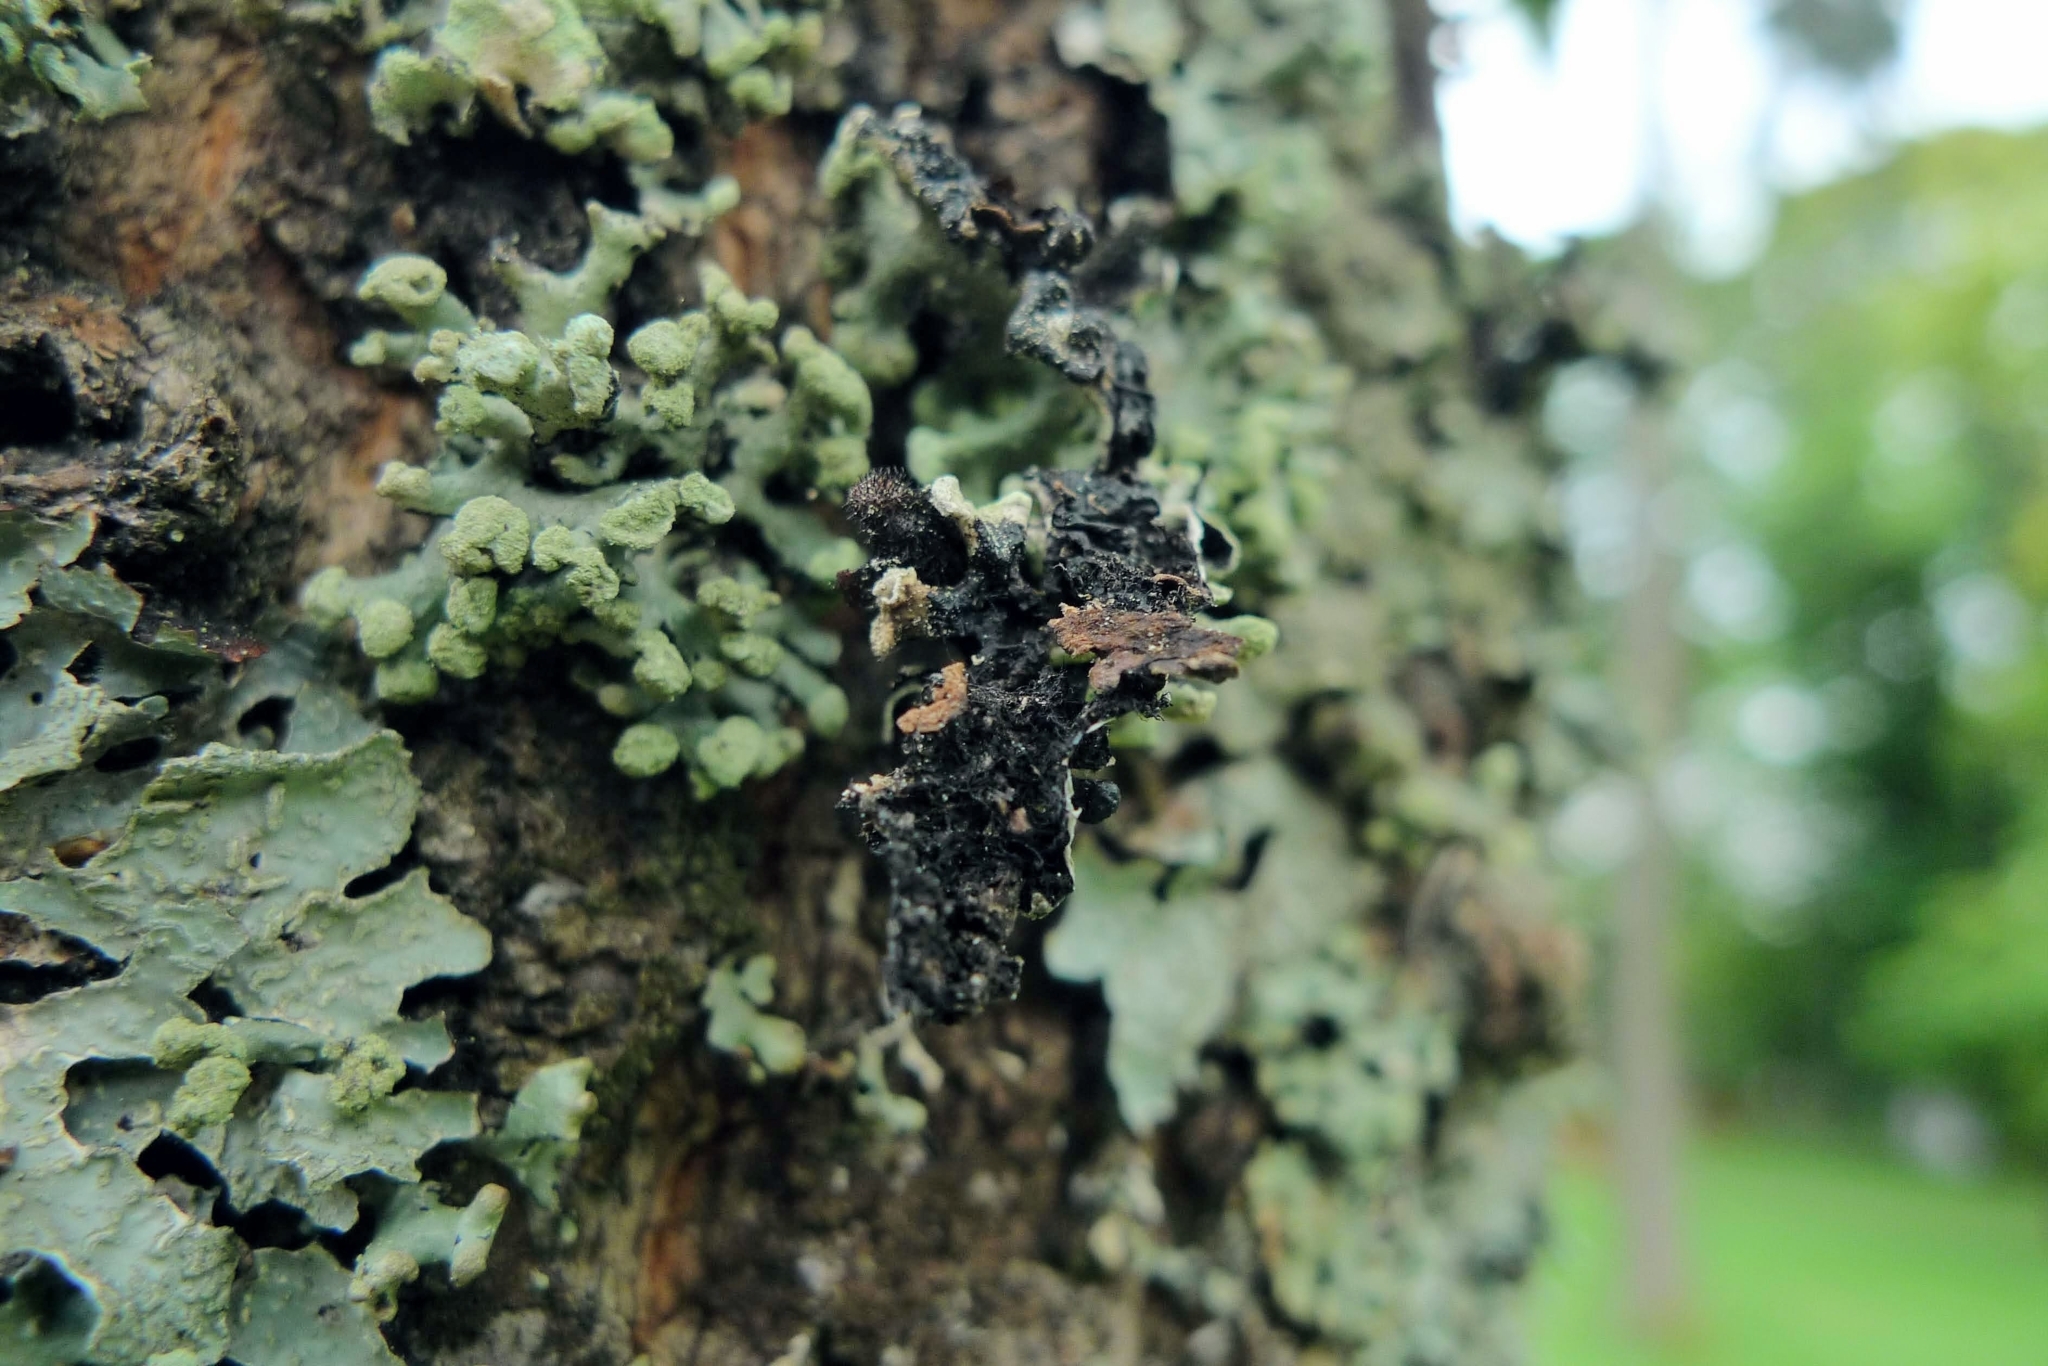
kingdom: Fungi
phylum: Ascomycota
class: Lecanoromycetes
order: Lecanorales
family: Parmeliaceae
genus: Hypogymnia
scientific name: Hypogymnia tubulosa
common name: Powder-headed tube lichen
